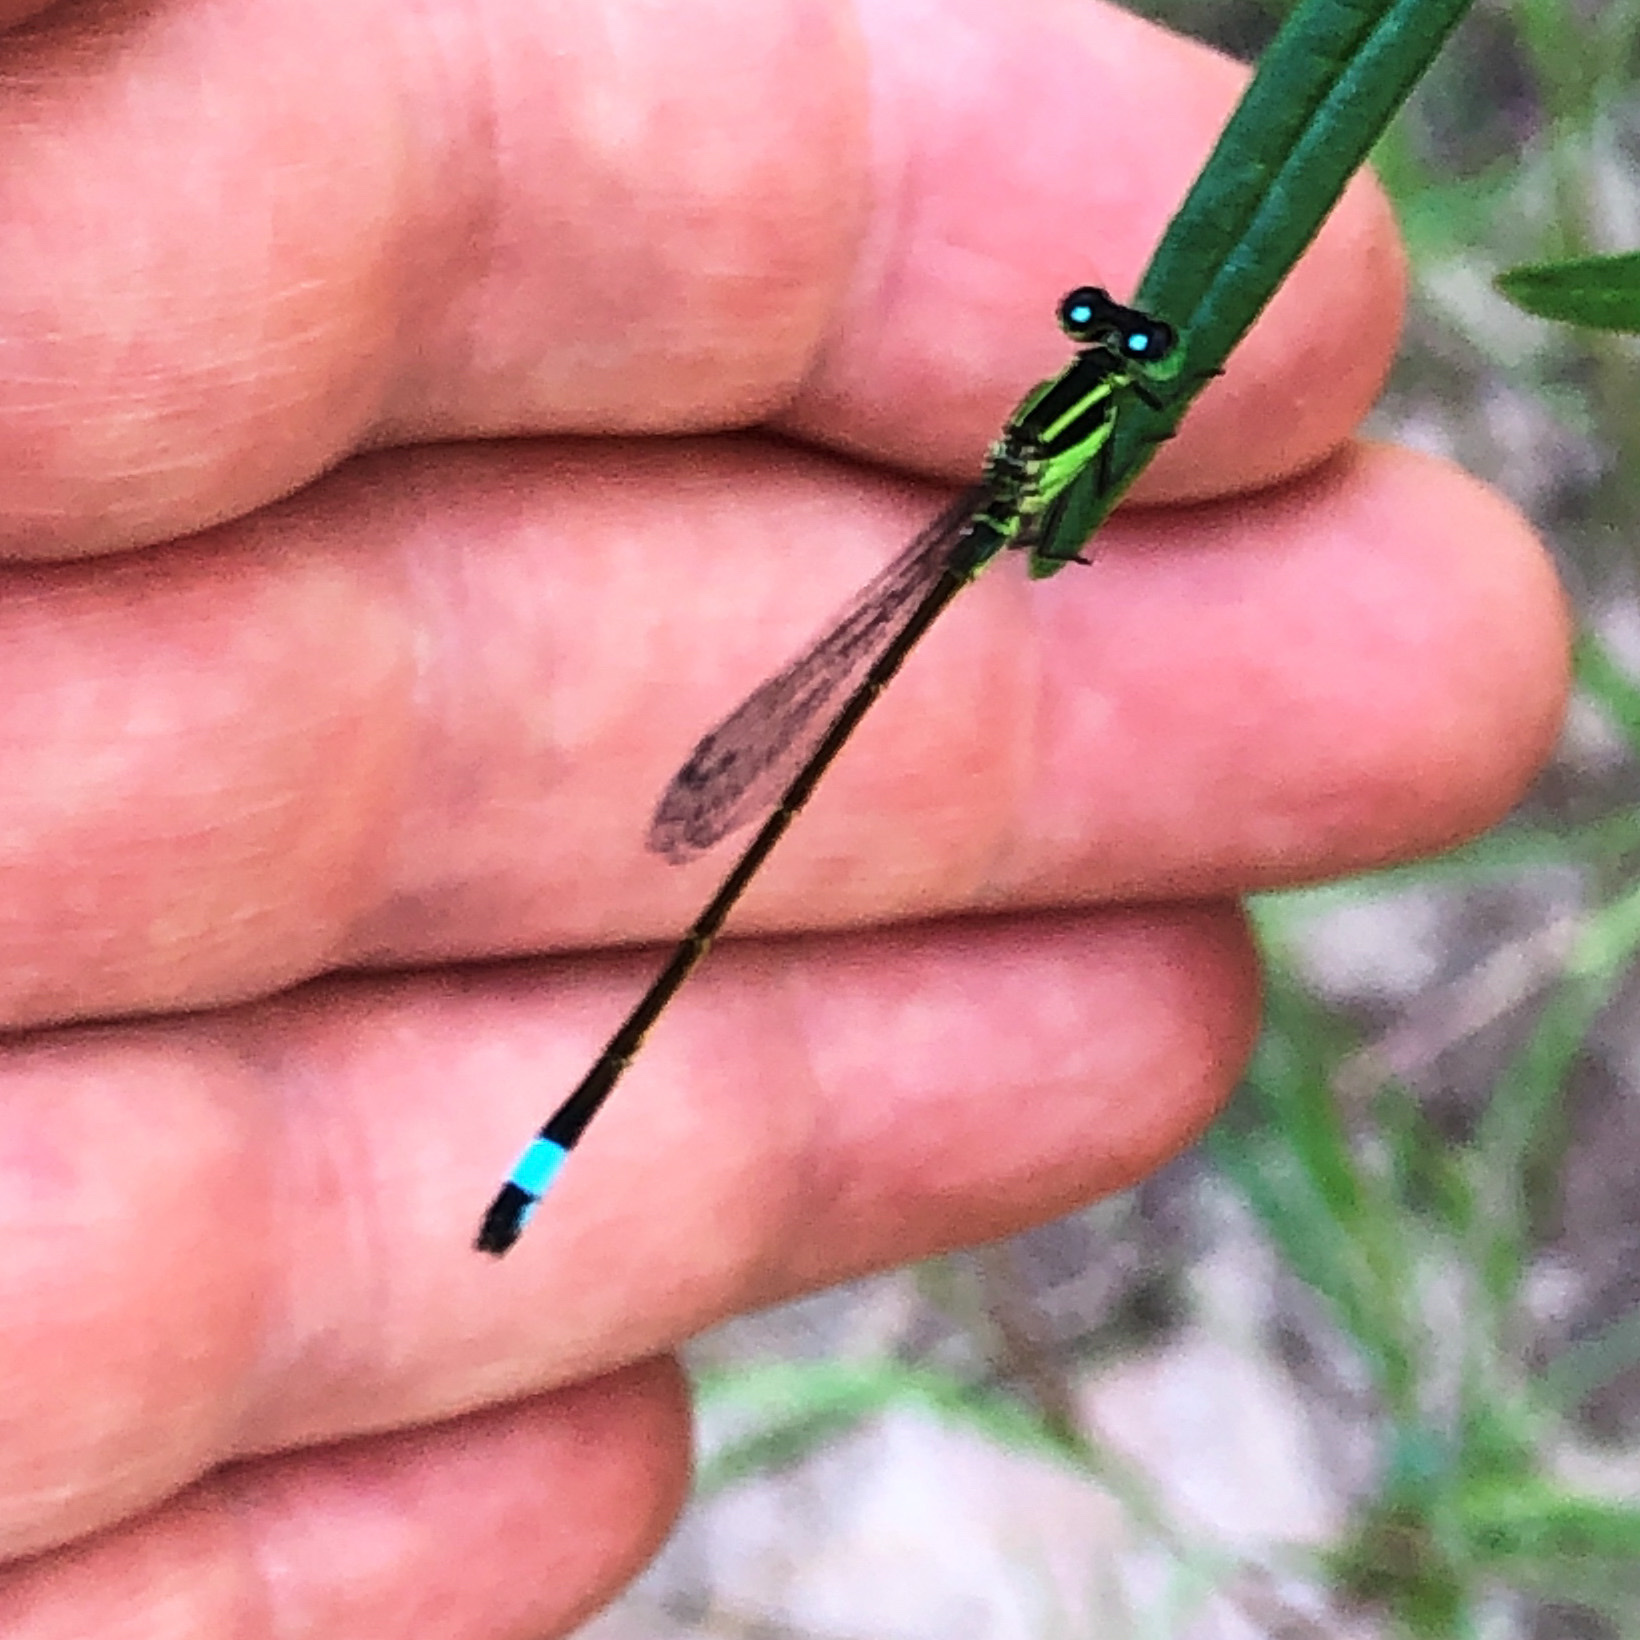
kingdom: Animalia
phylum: Arthropoda
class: Insecta
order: Odonata
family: Coenagrionidae
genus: Ischnura
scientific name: Ischnura ramburii
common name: Rambur's forktail
